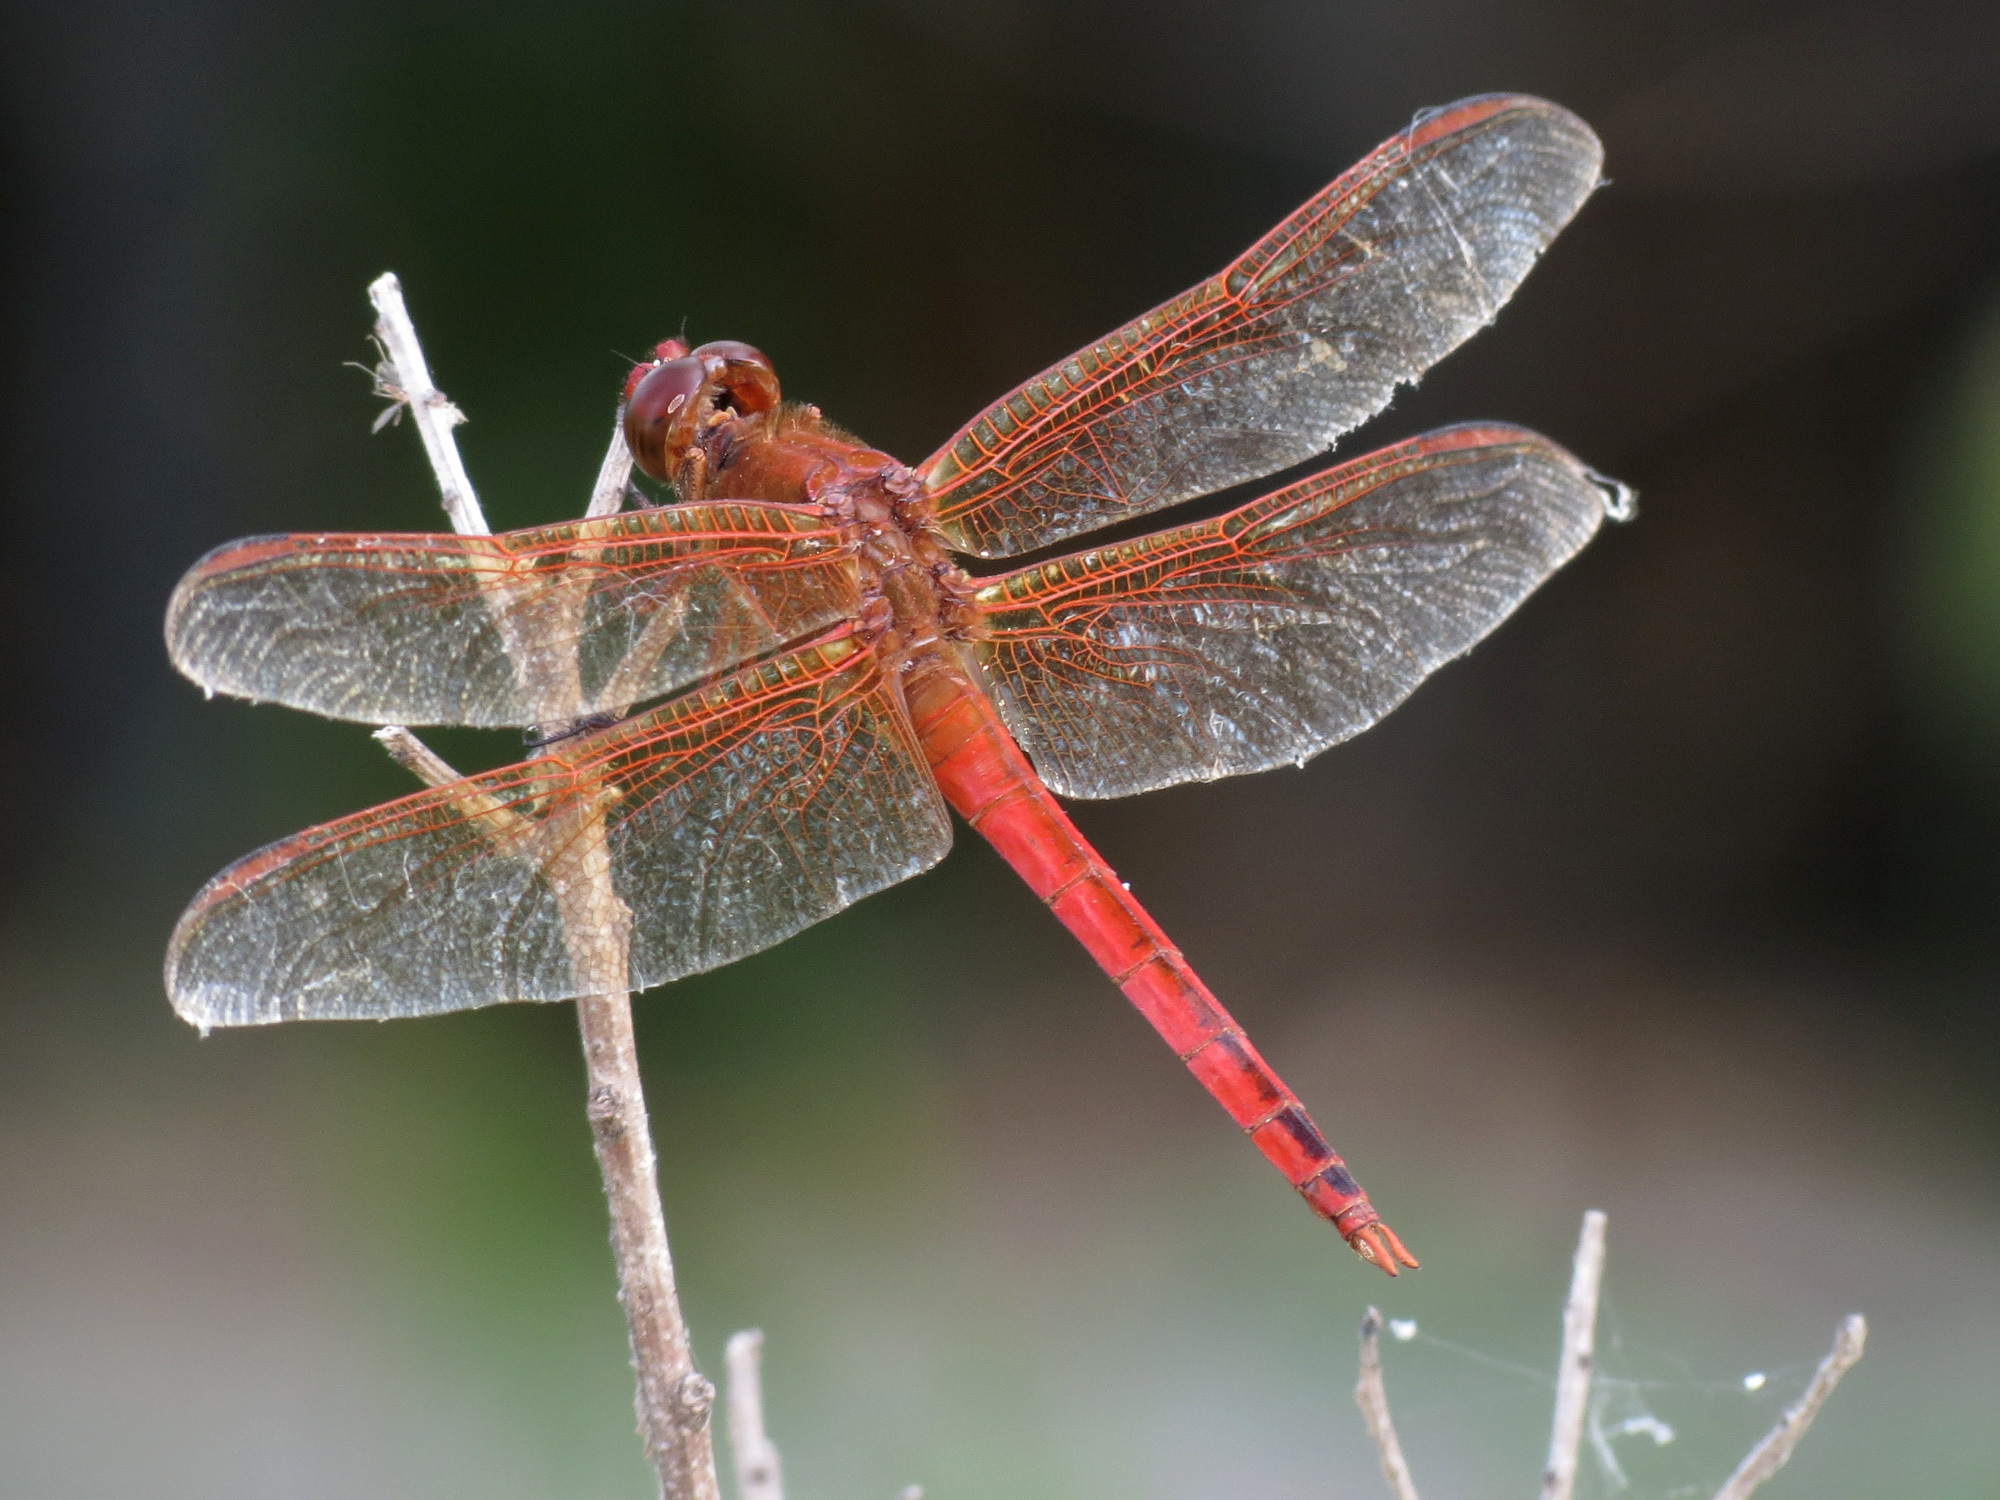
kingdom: Animalia
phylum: Arthropoda
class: Insecta
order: Odonata
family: Libellulidae
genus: Libellula
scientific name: Libellula needhami
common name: Needham's skimmer
